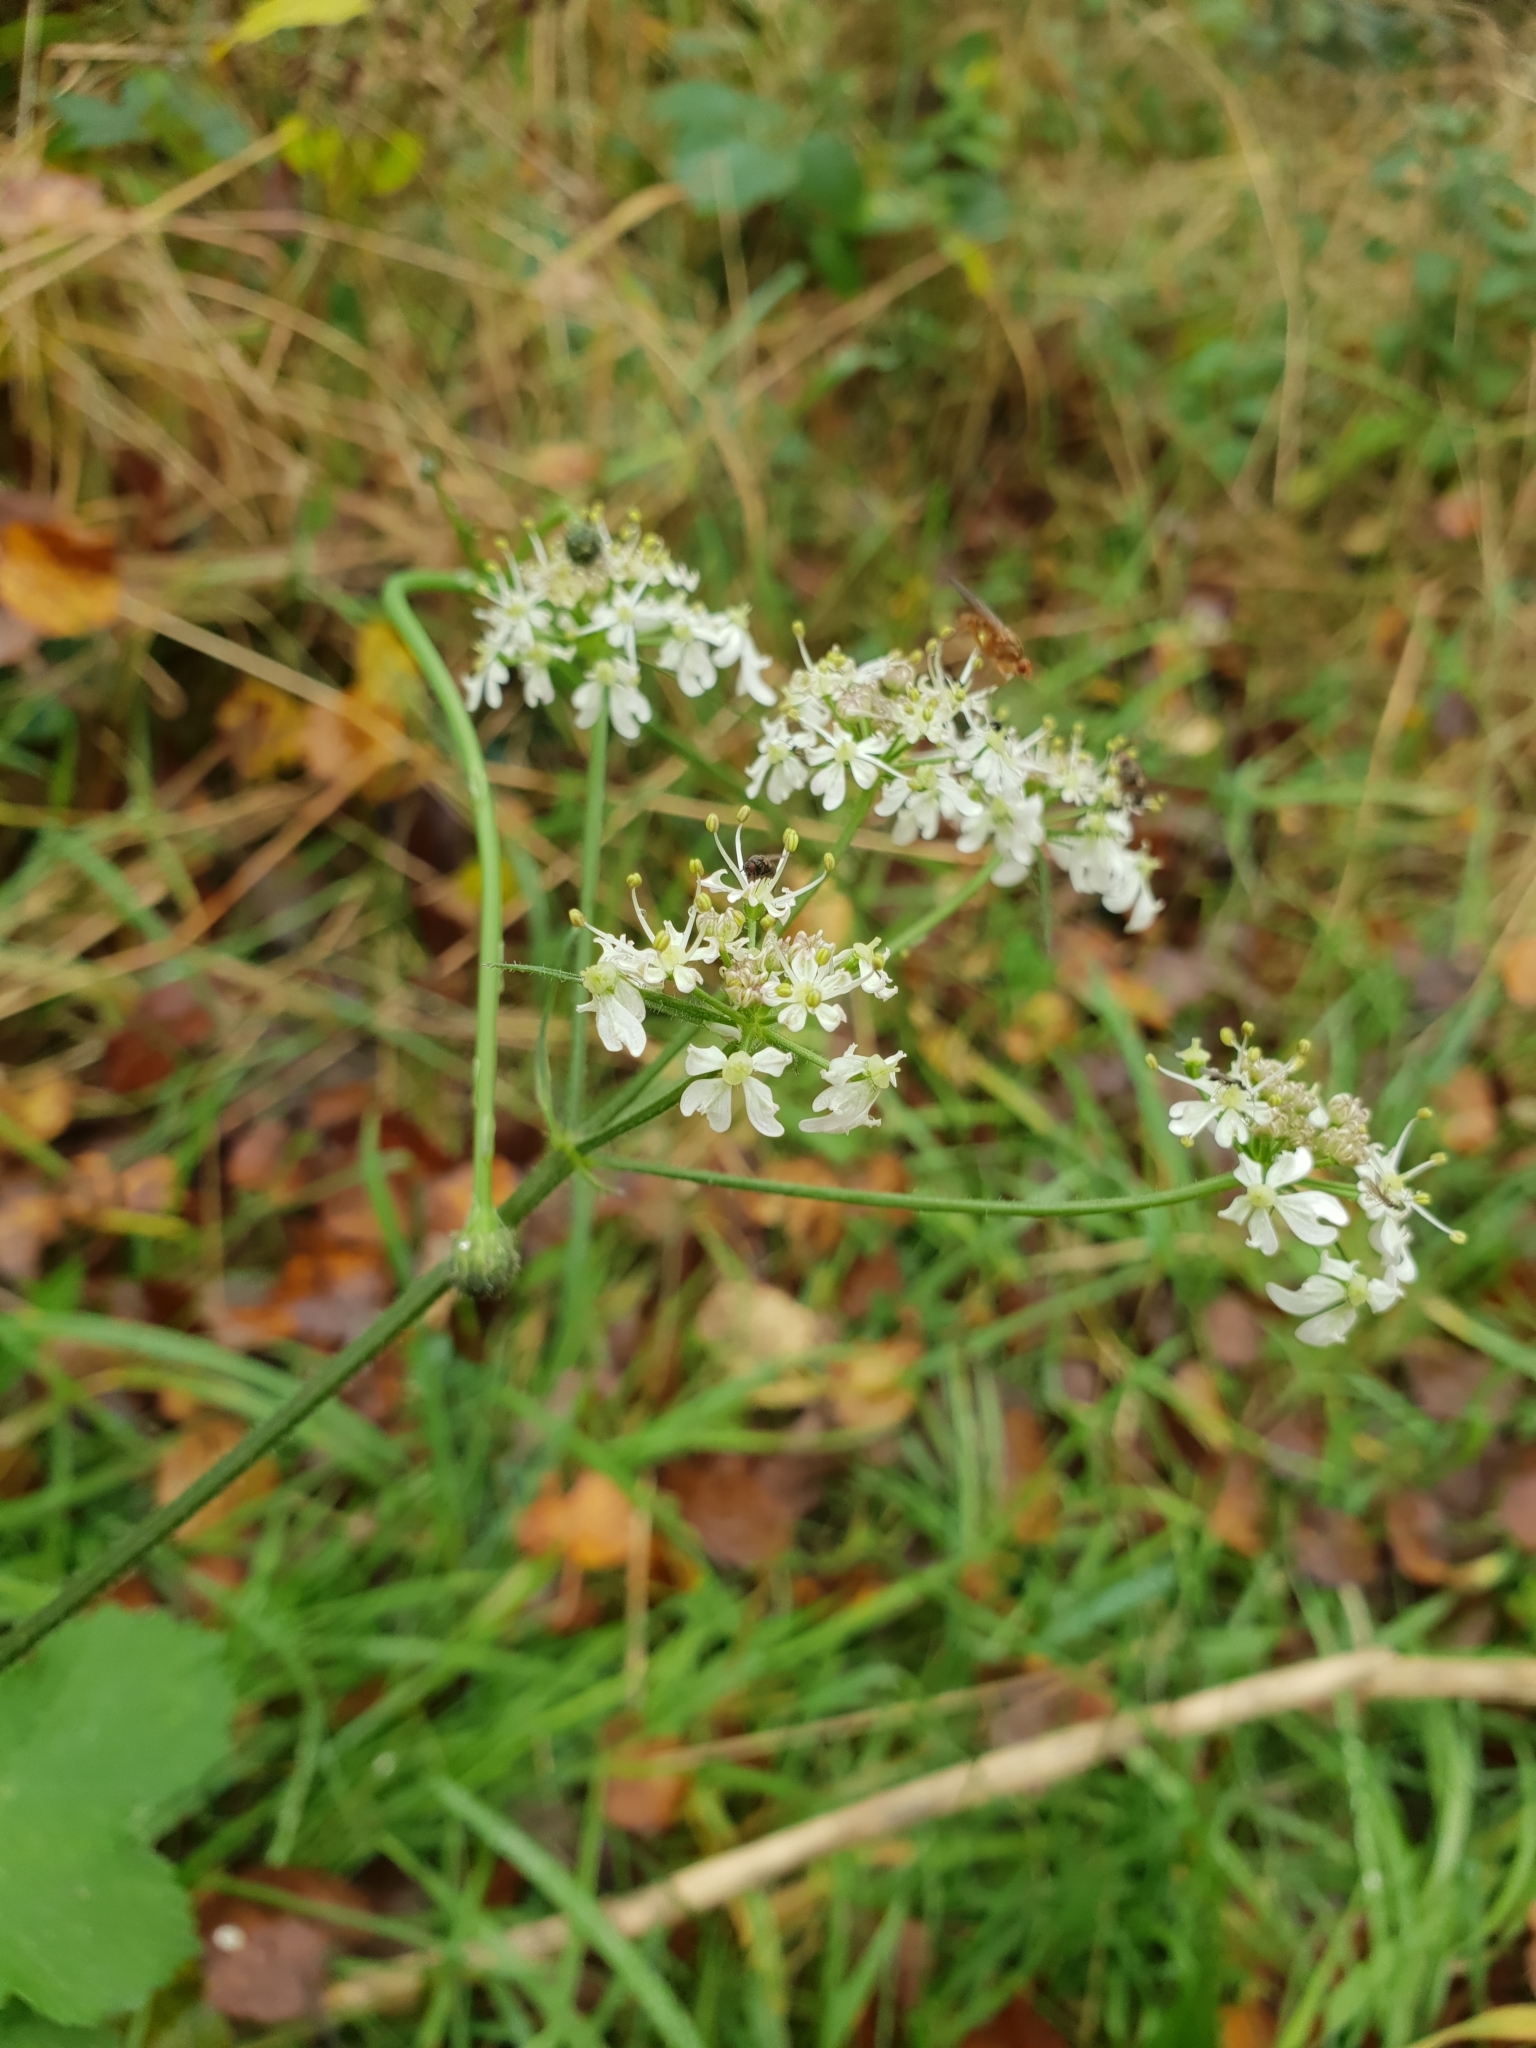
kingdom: Plantae
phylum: Tracheophyta
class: Magnoliopsida
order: Apiales
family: Apiaceae
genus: Heracleum
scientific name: Heracleum sphondylium
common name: Hogweed
